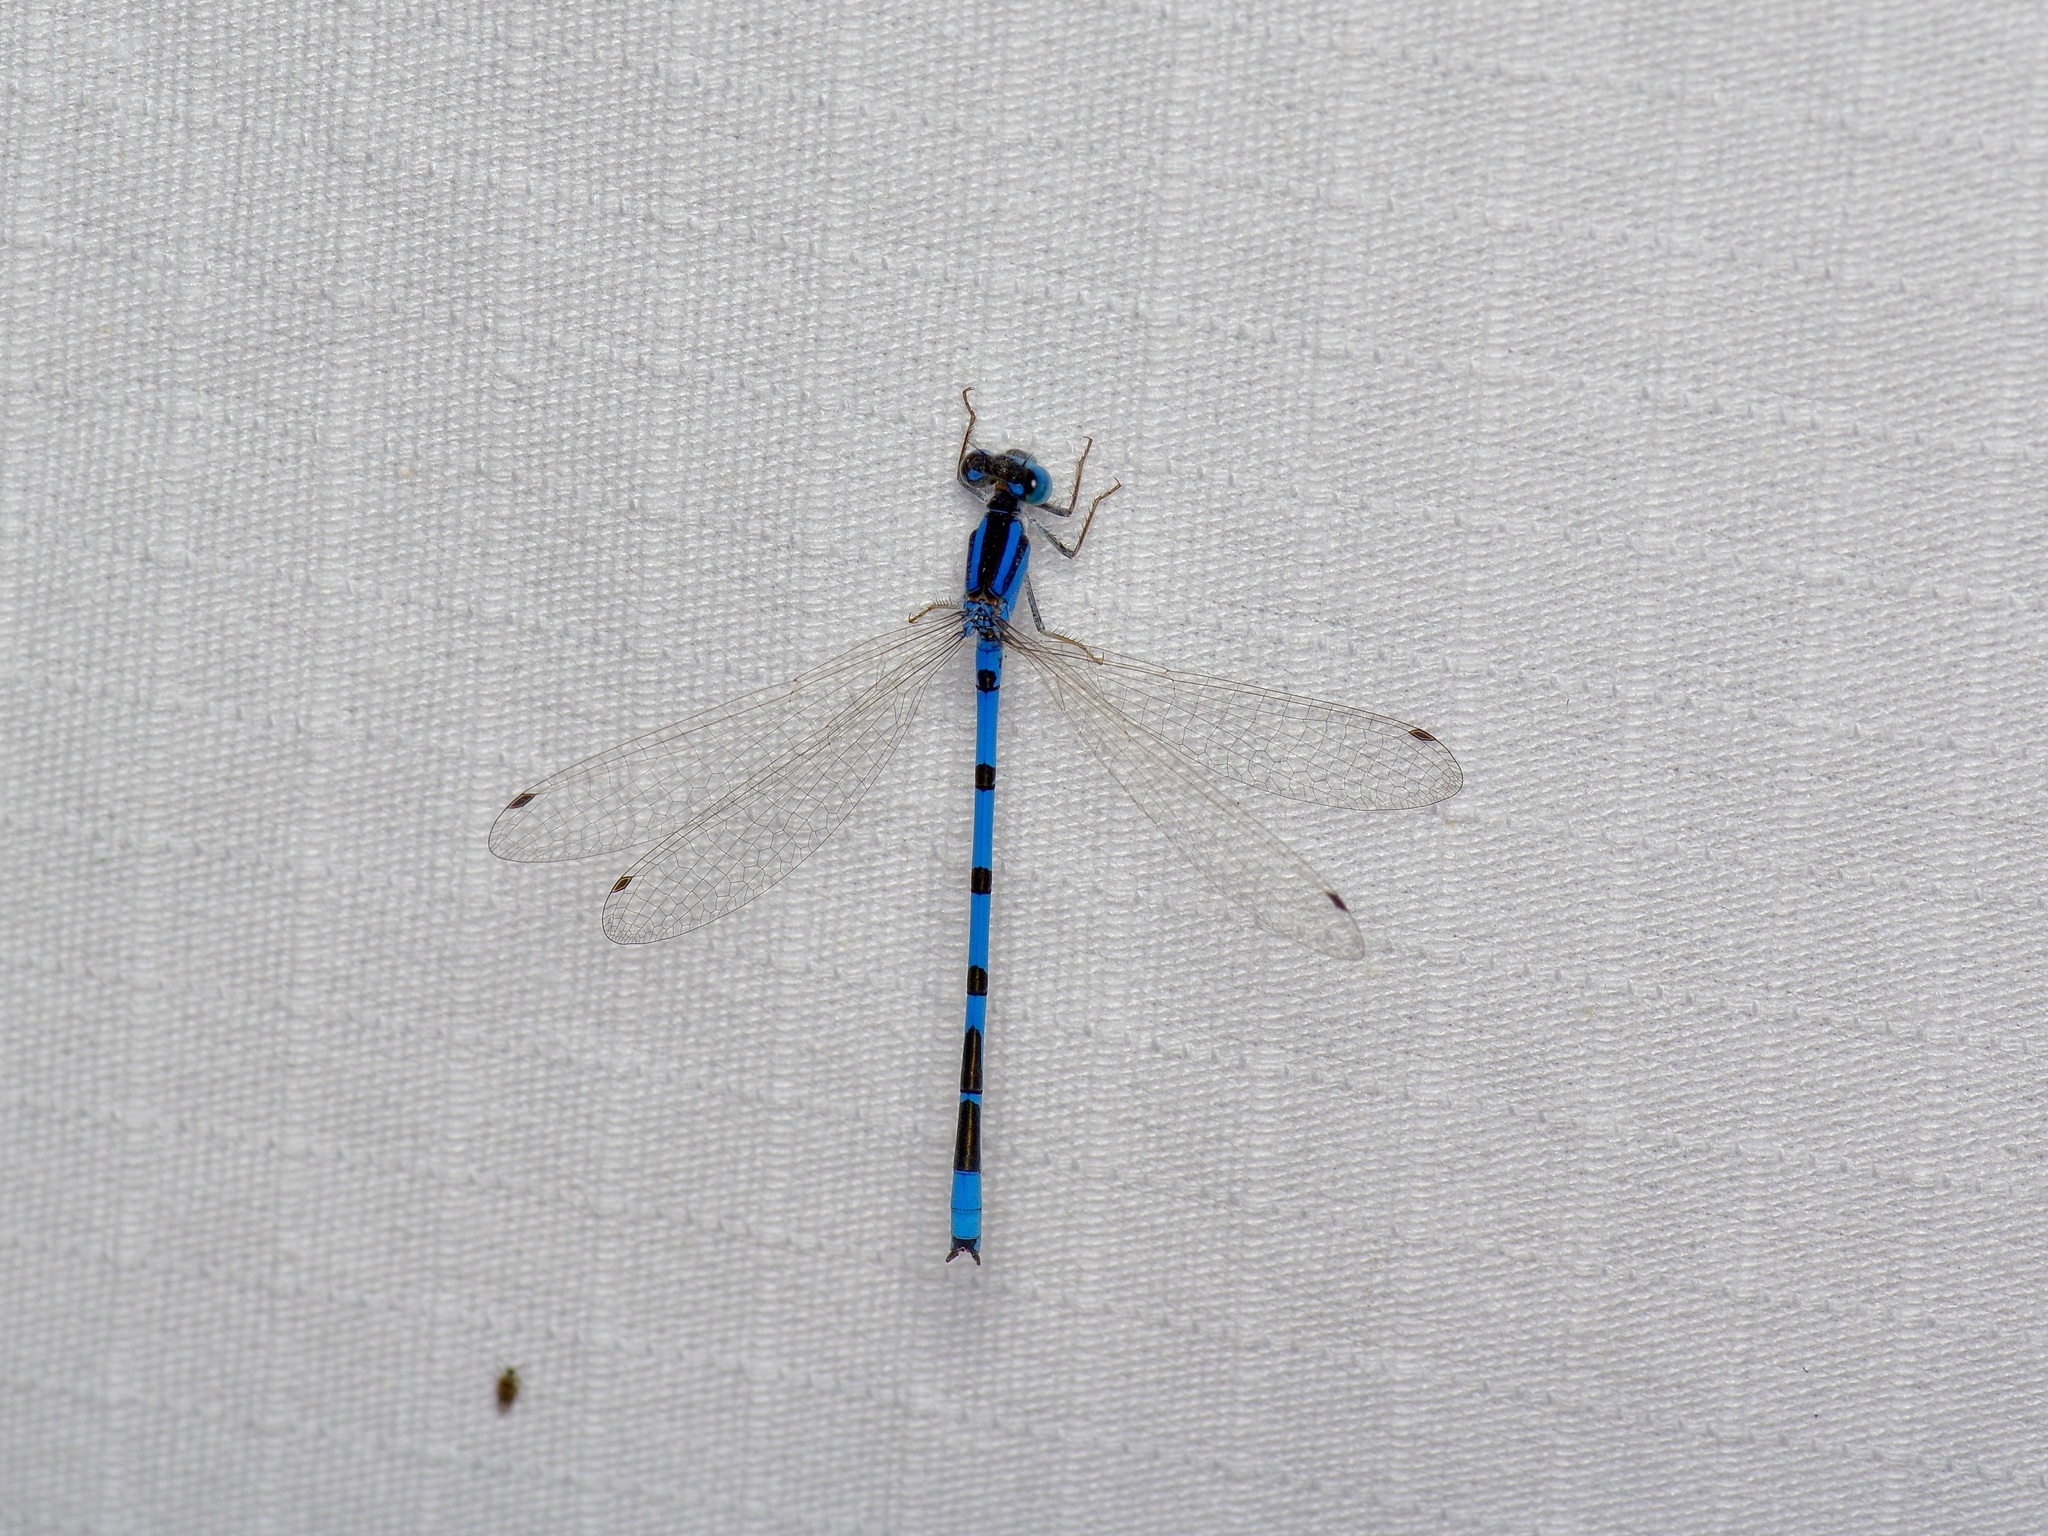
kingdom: Animalia
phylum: Arthropoda
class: Insecta
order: Odonata
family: Coenagrionidae
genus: Enallagma
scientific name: Enallagma civile
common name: Damselfly
